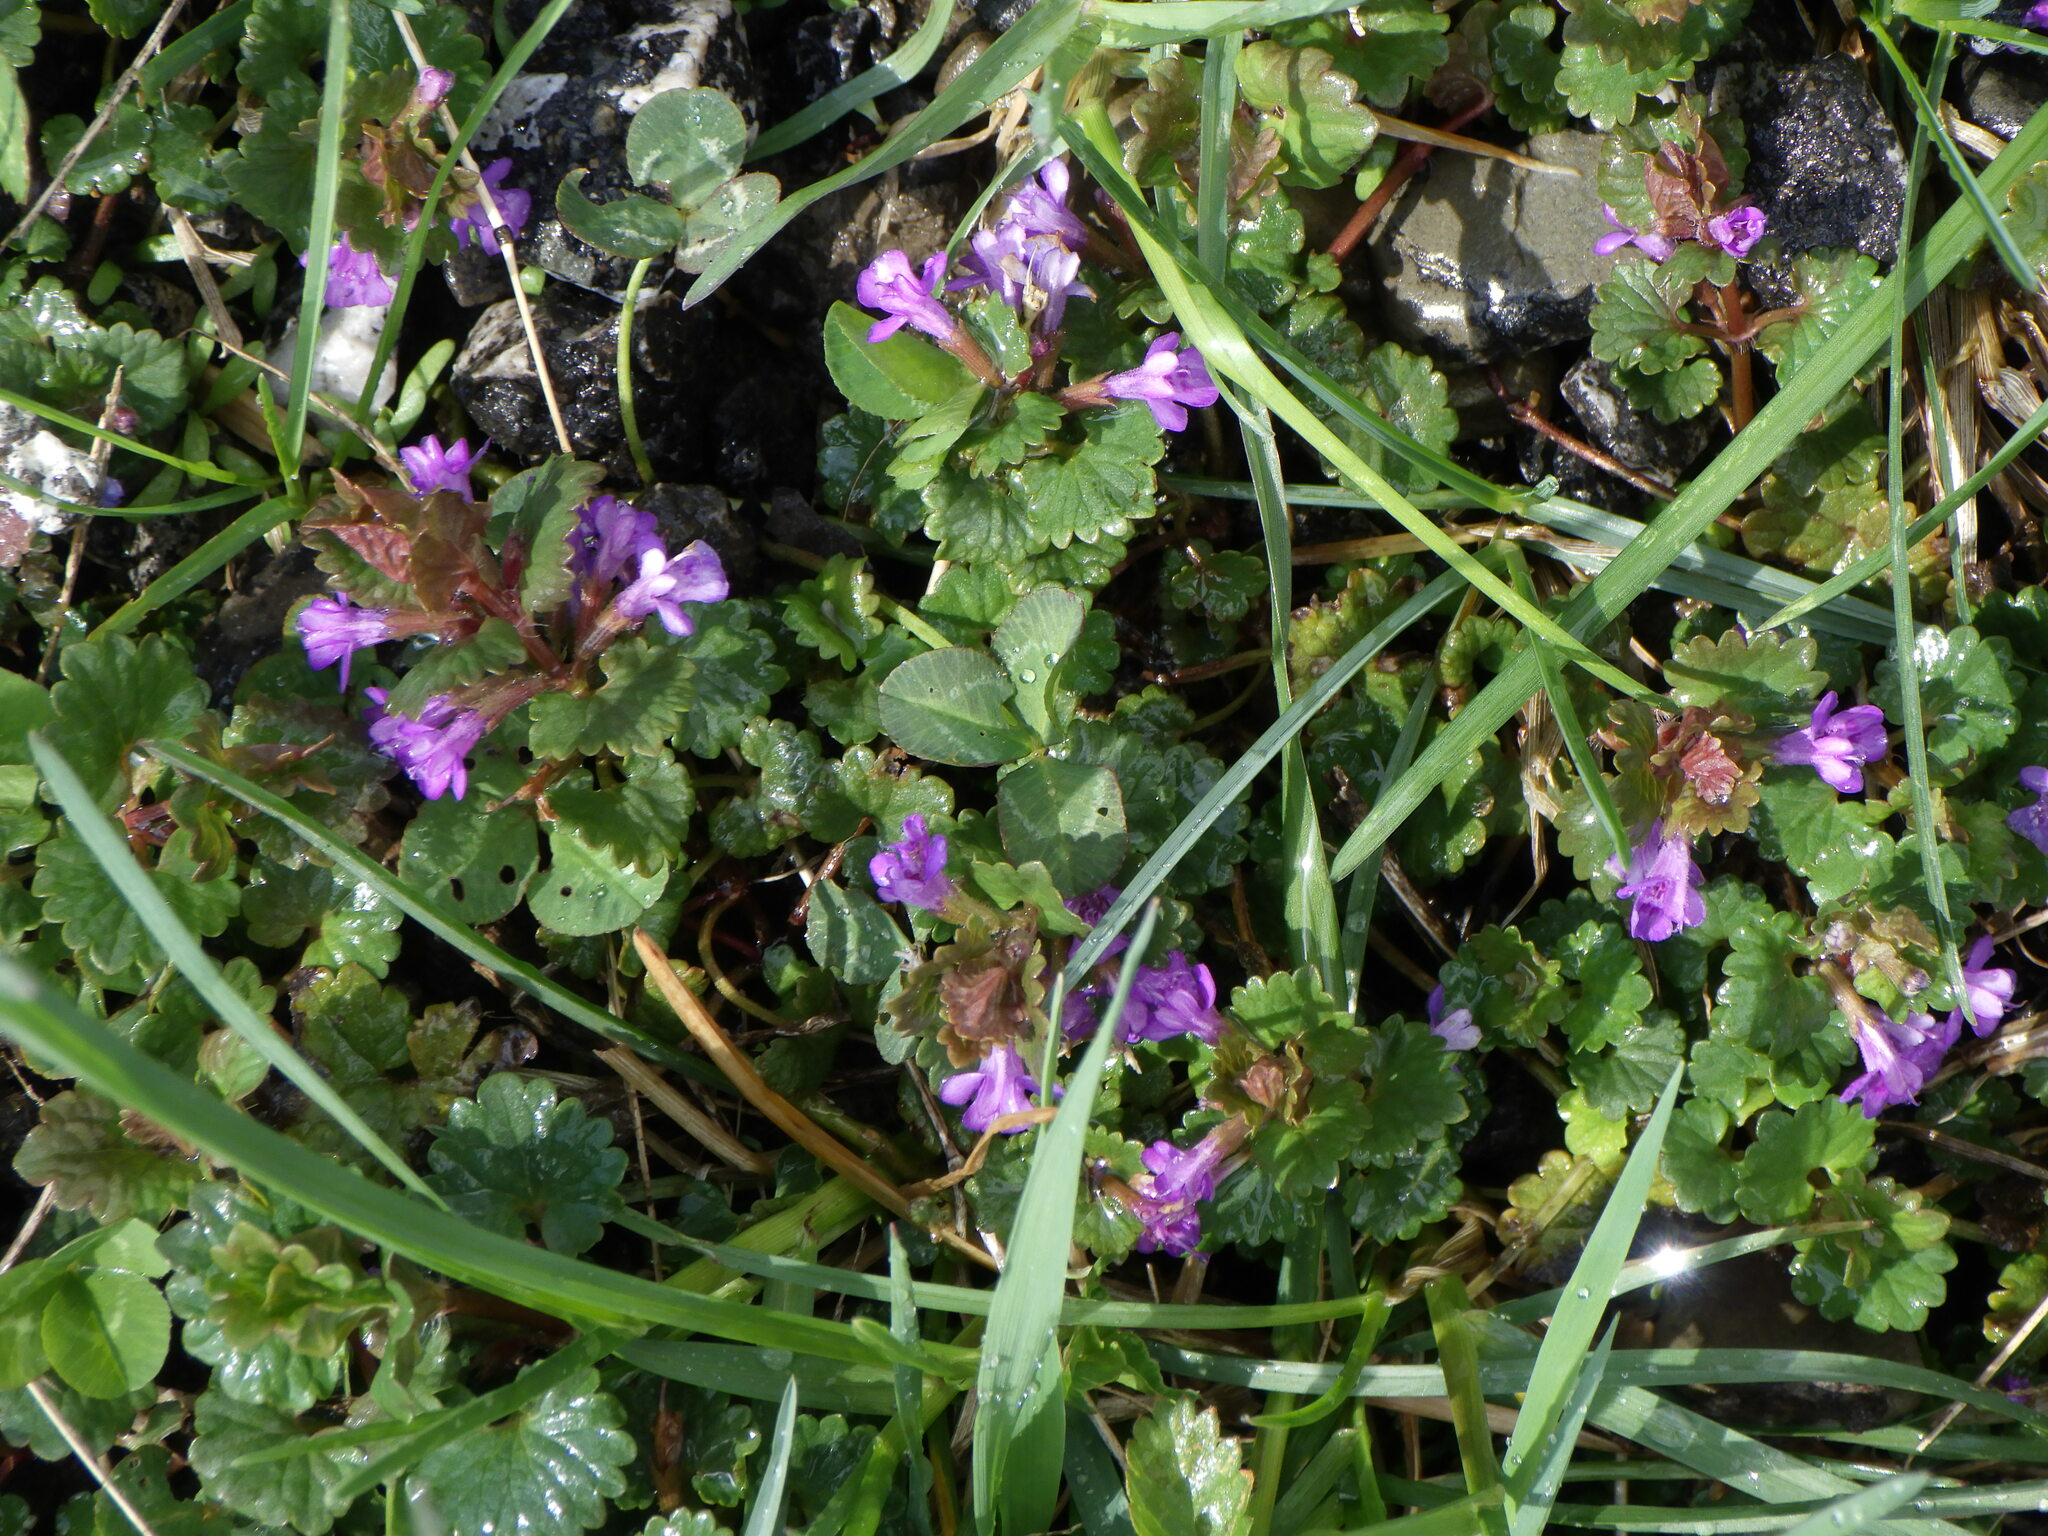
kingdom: Plantae
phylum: Tracheophyta
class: Magnoliopsida
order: Lamiales
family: Lamiaceae
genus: Glechoma
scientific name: Glechoma hederacea
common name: Ground ivy
